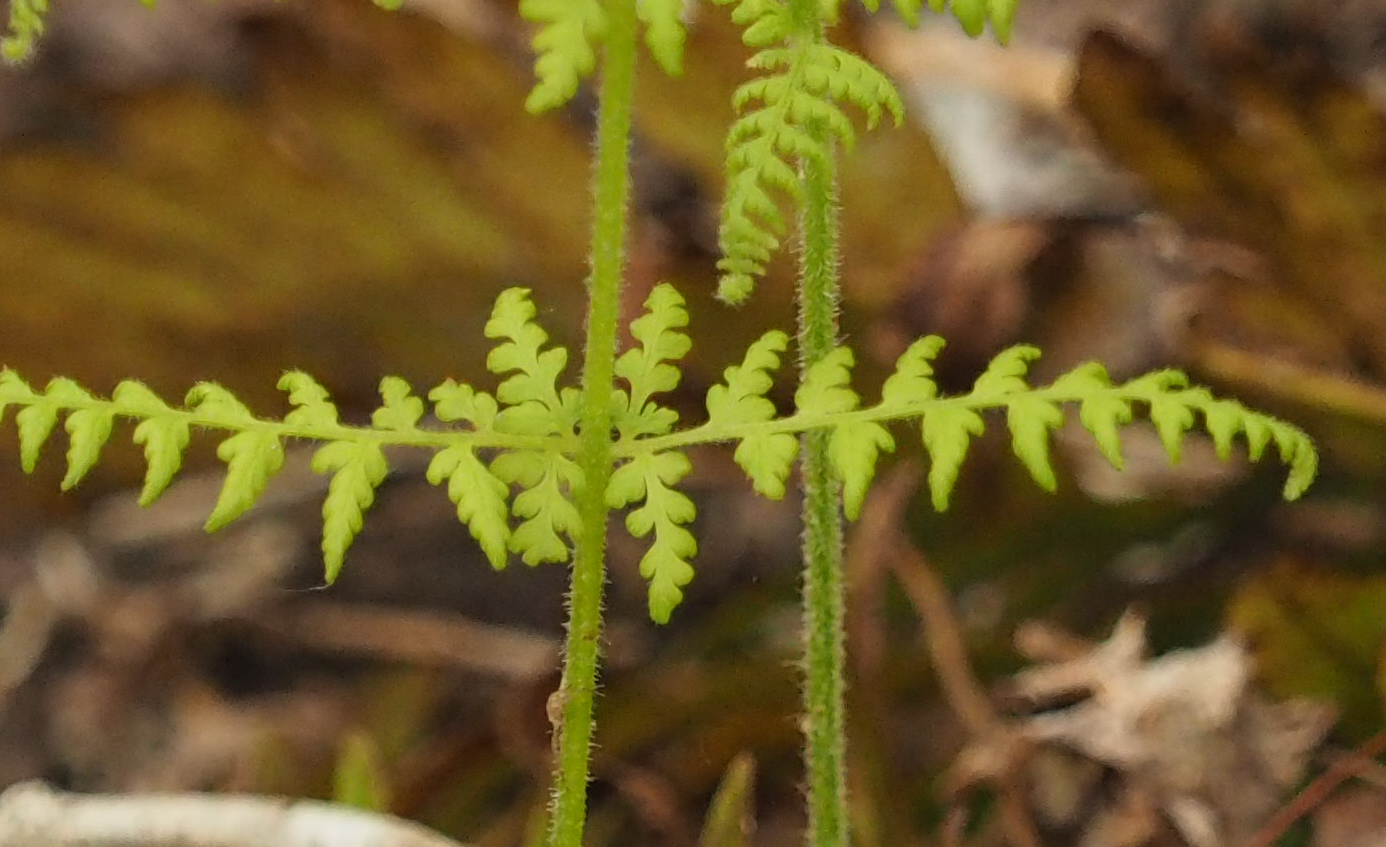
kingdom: Plantae
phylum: Tracheophyta
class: Polypodiopsida
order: Polypodiales
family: Dennstaedtiaceae
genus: Sitobolium
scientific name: Sitobolium punctilobum
